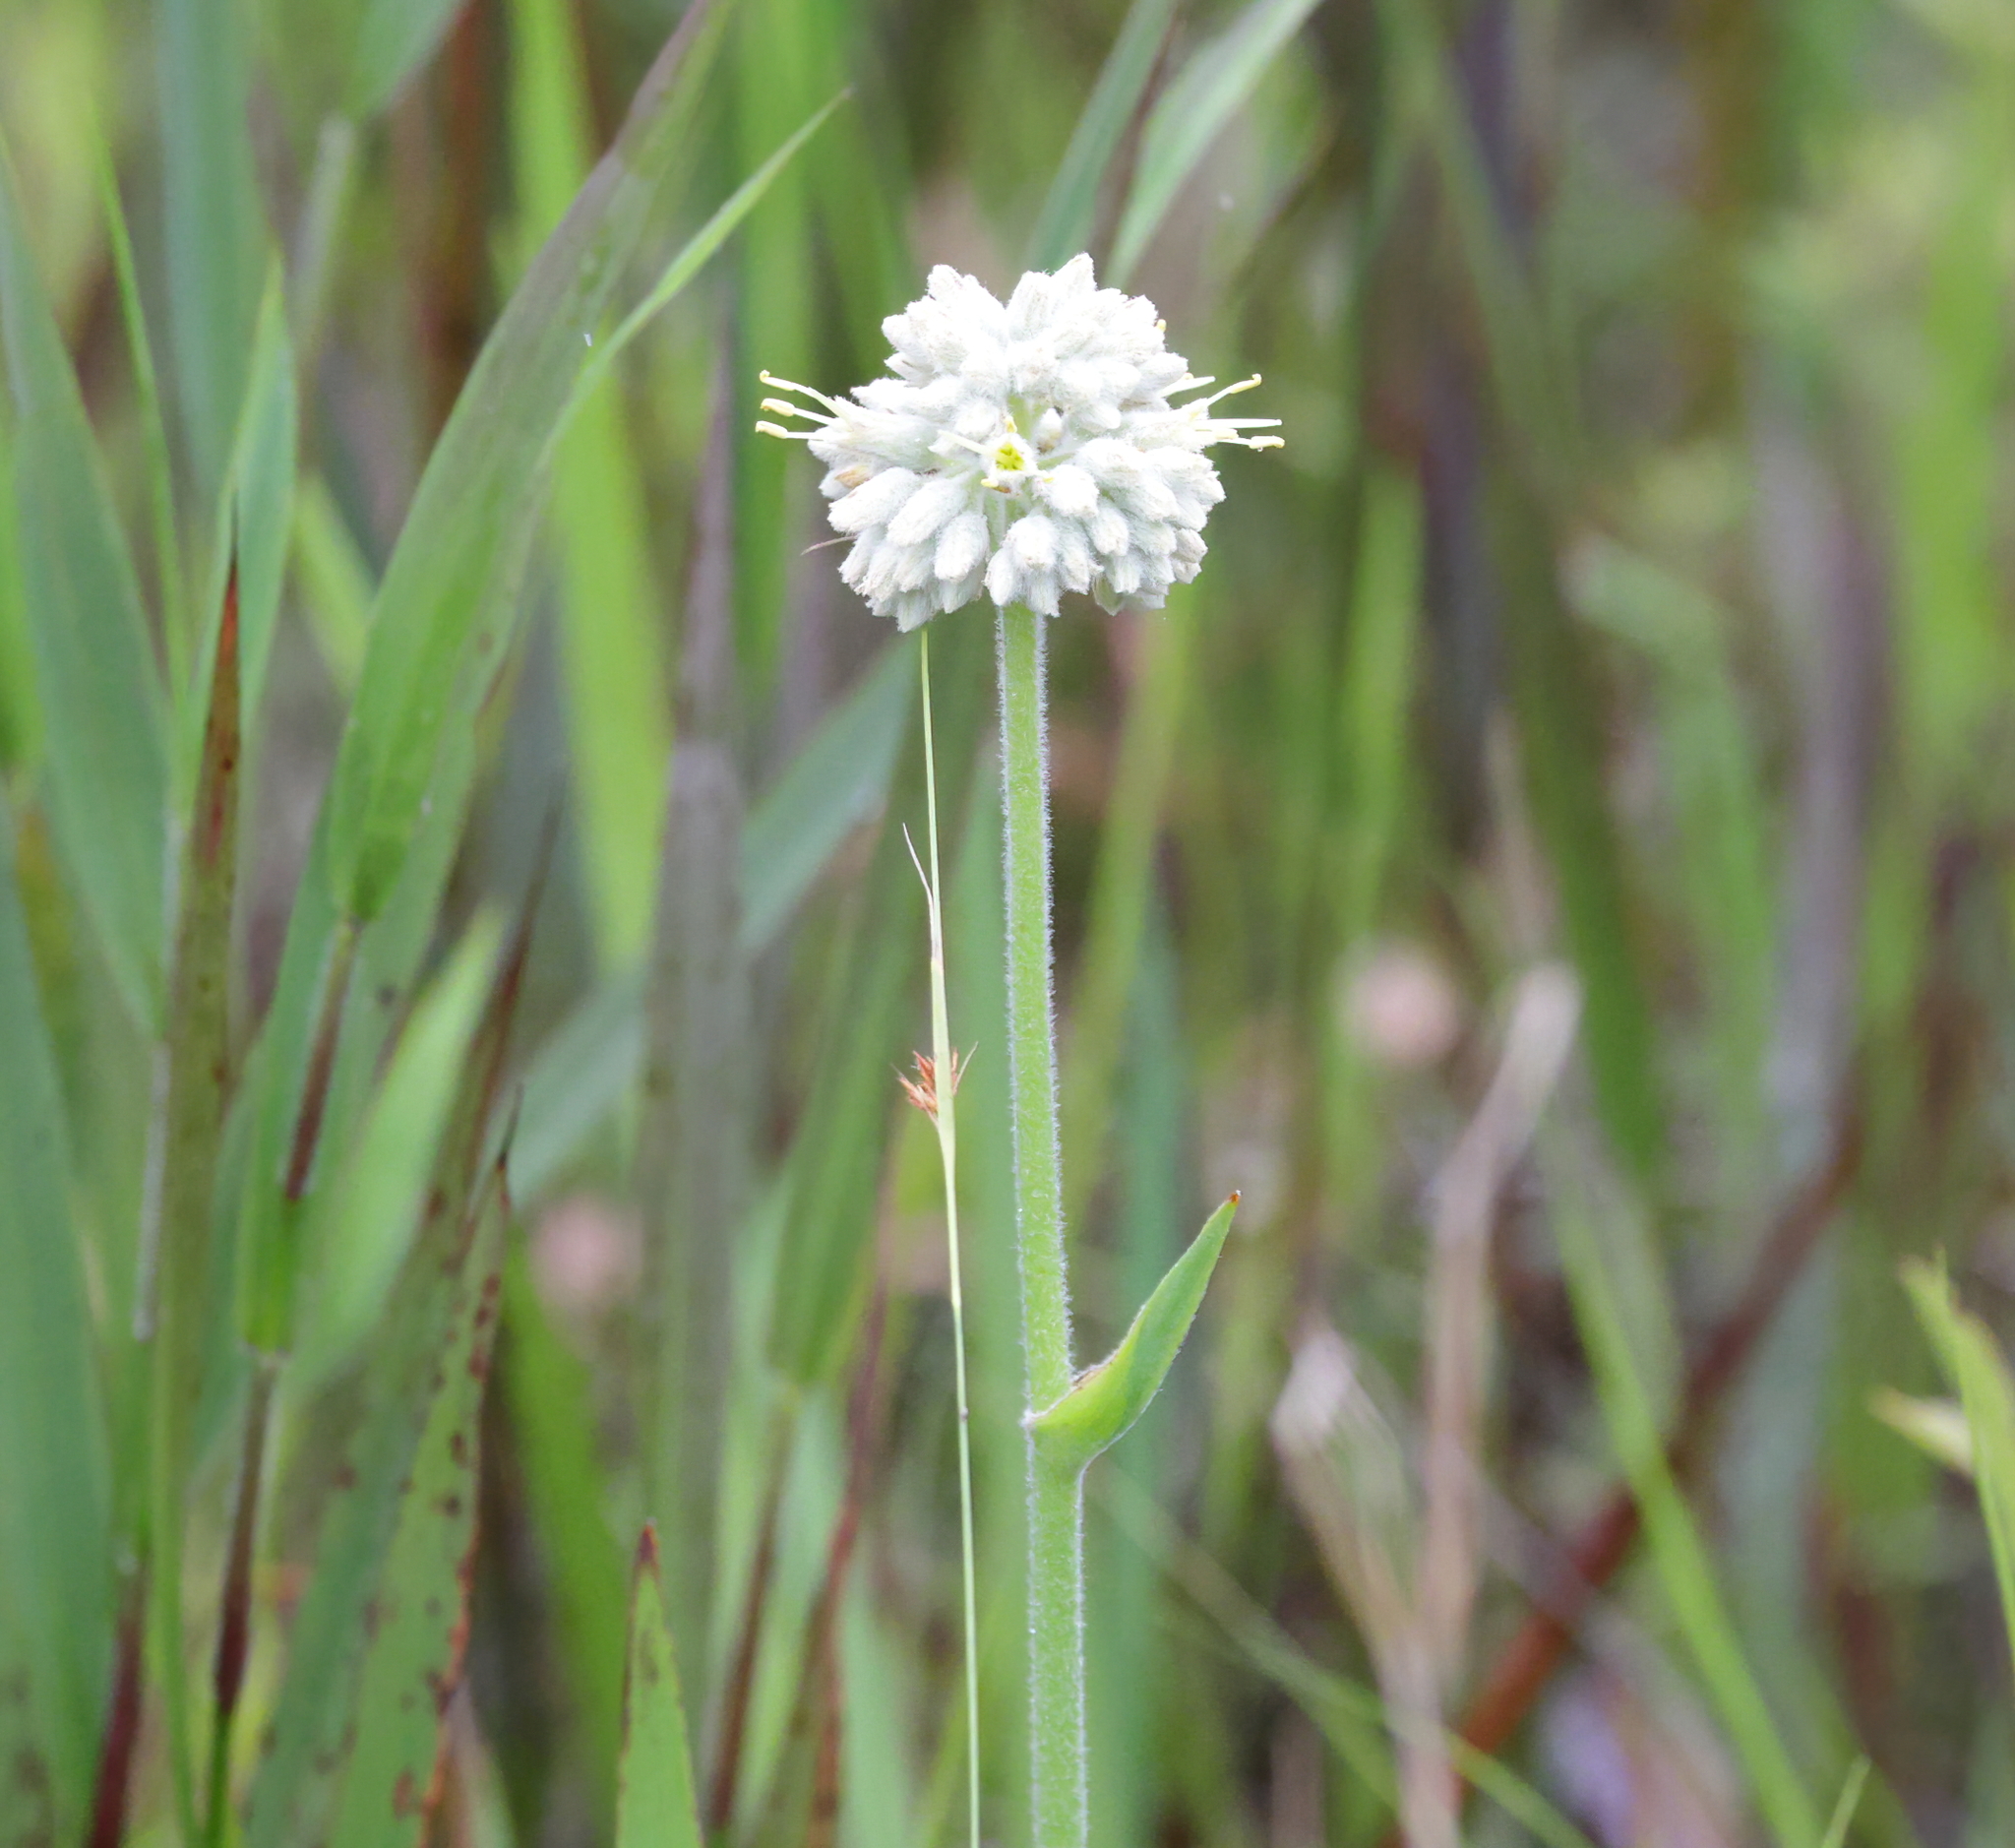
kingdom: Plantae
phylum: Tracheophyta
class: Liliopsida
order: Commelinales
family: Haemodoraceae
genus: Lachnanthes
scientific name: Lachnanthes caroliana
